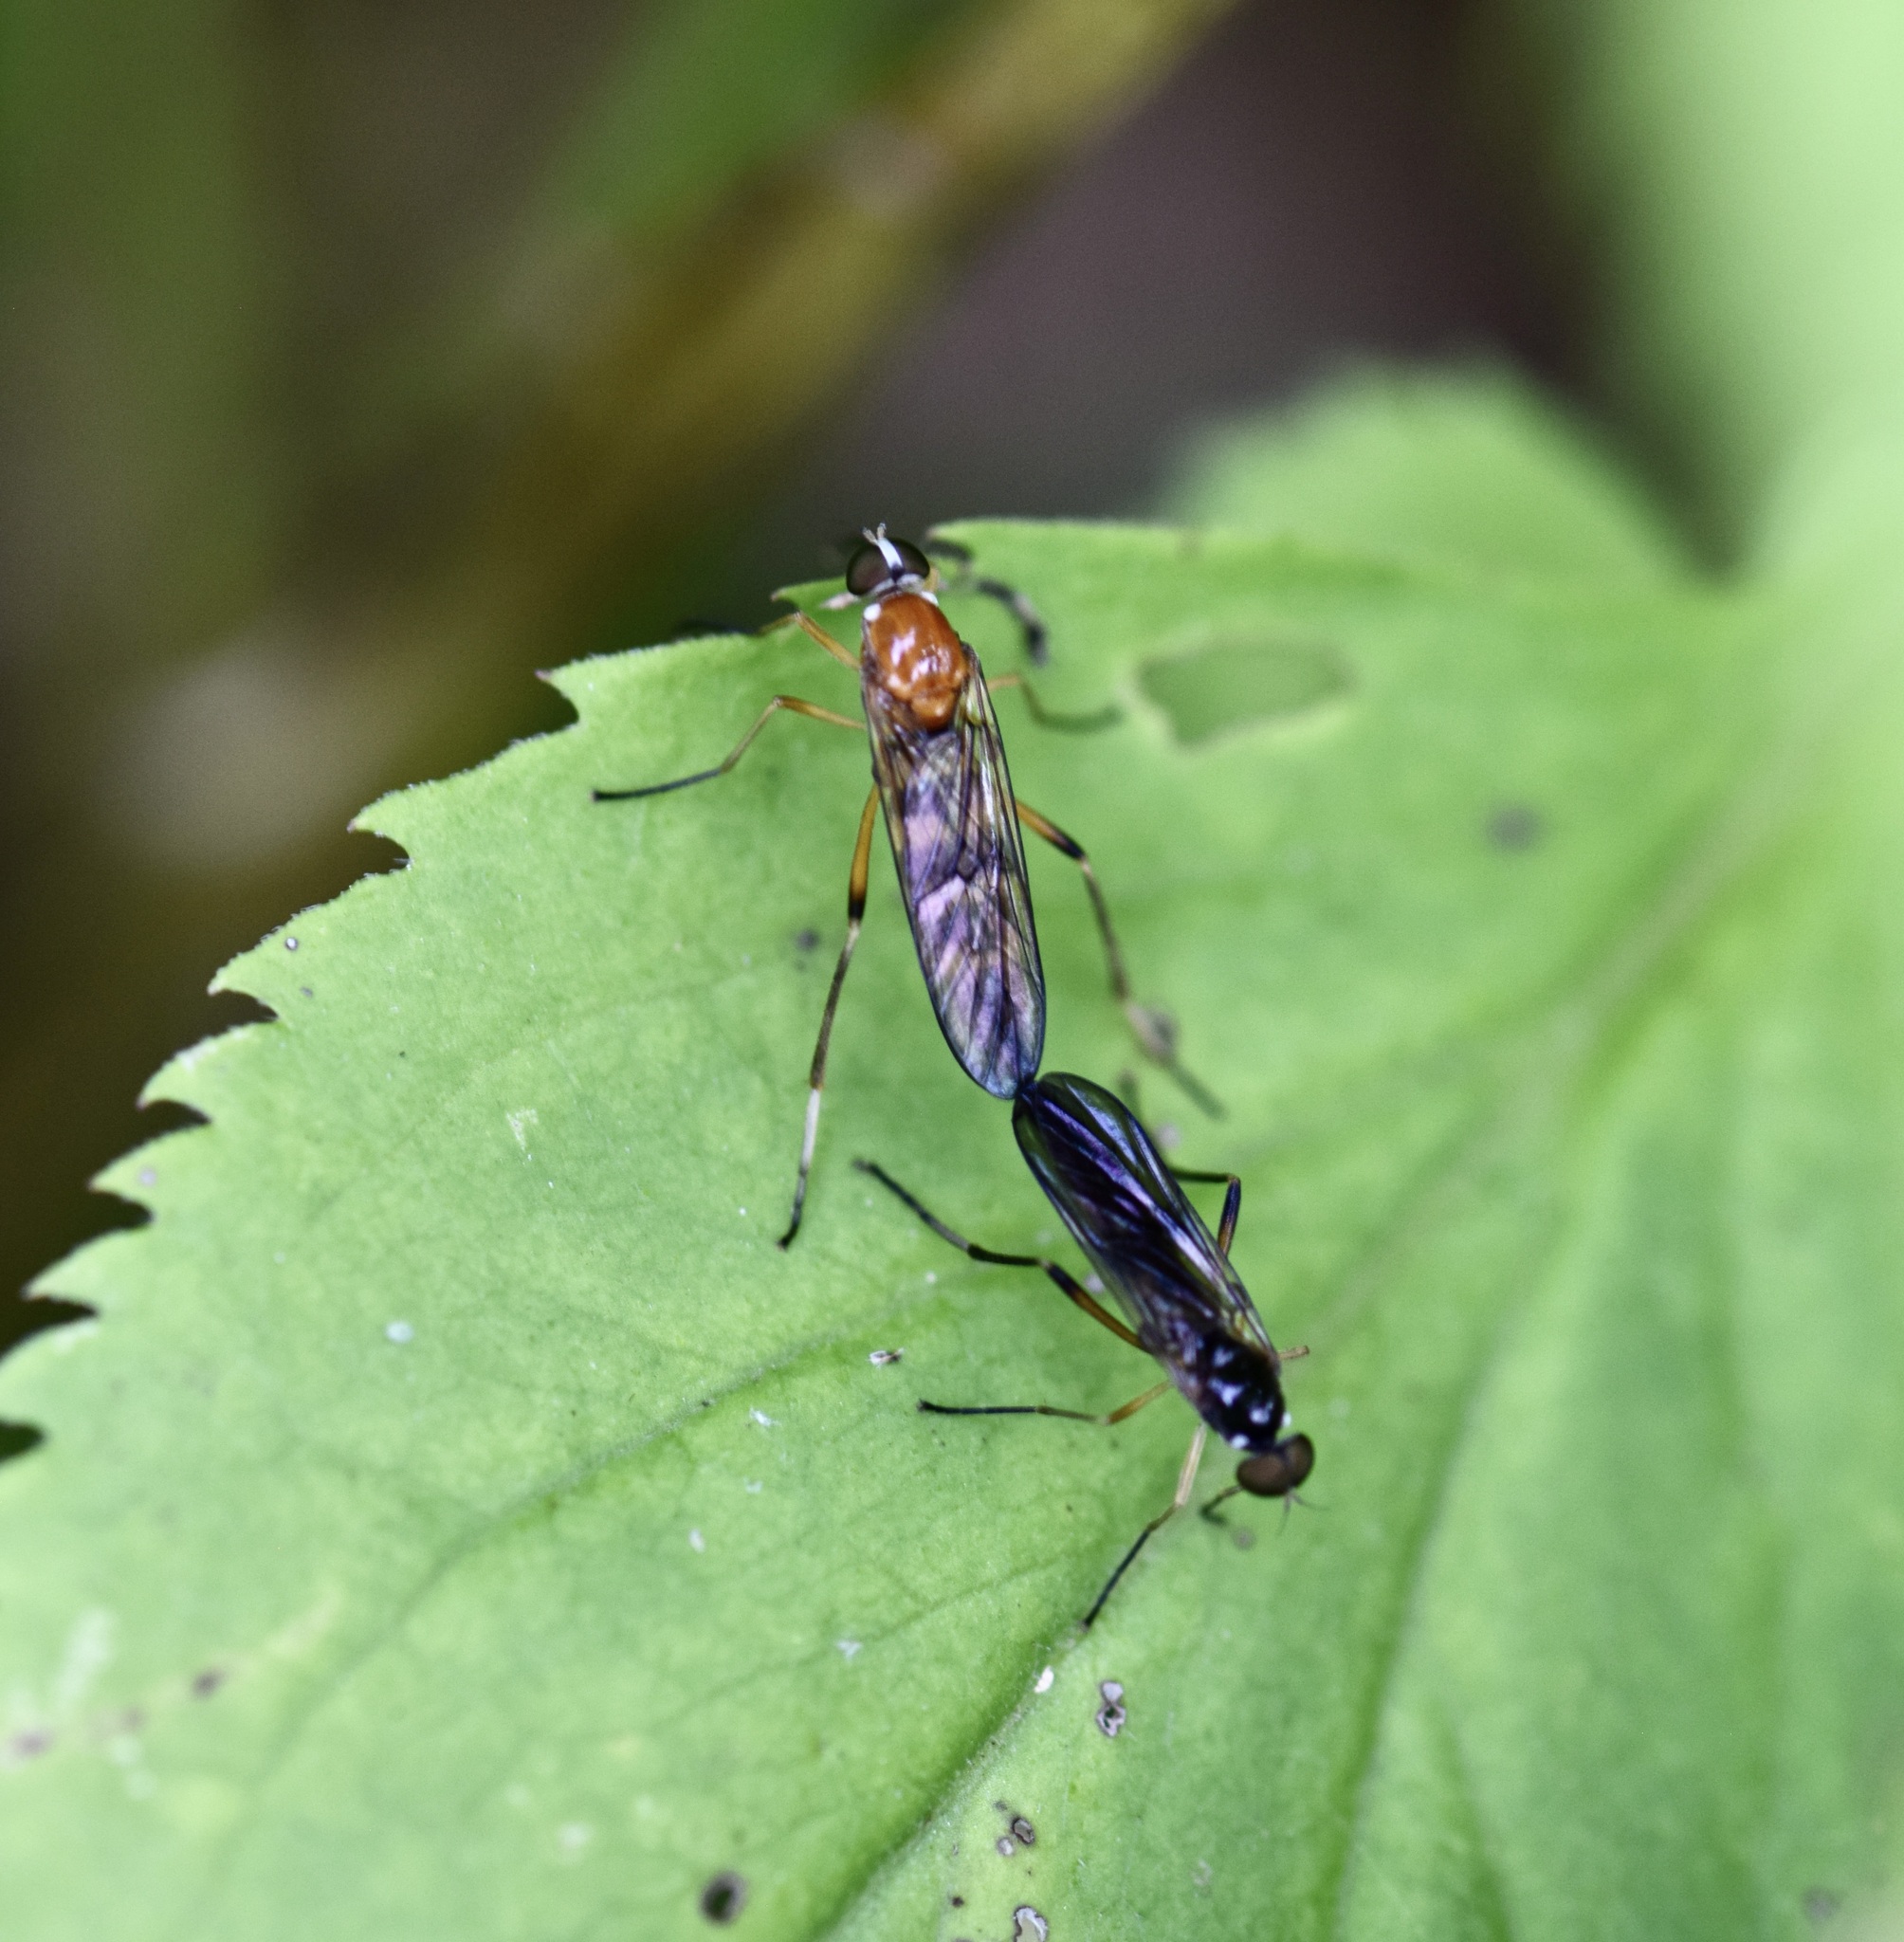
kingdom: Animalia
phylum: Arthropoda
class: Insecta
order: Diptera
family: Xylophagidae
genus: Dialysis
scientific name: Dialysis elongata
